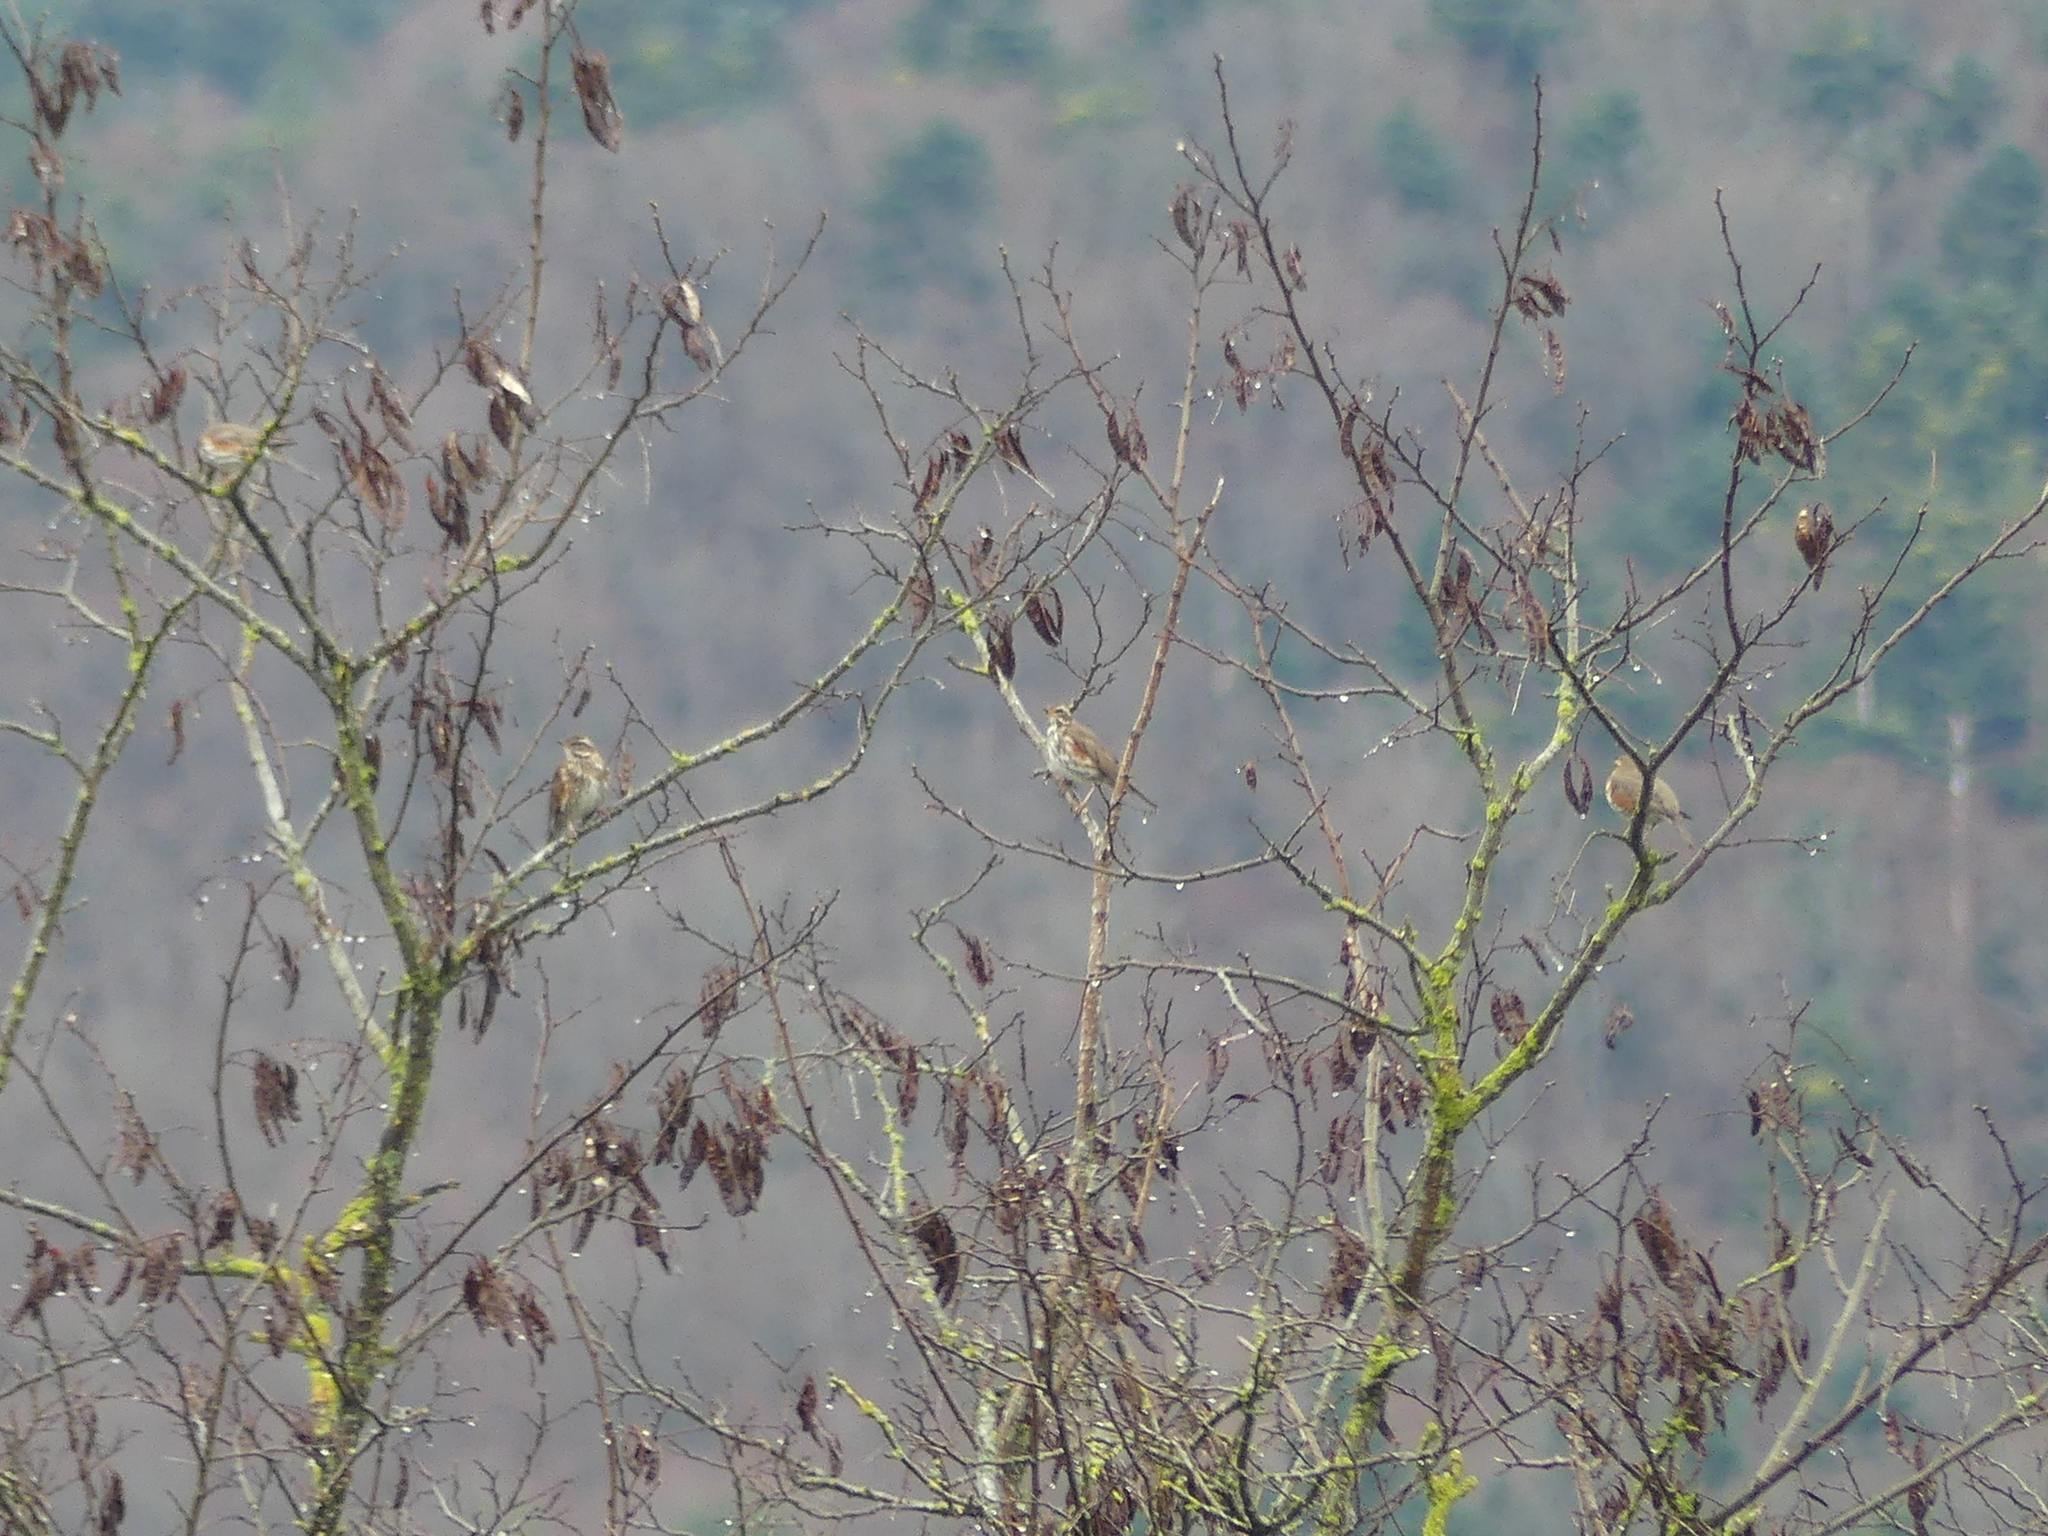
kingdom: Animalia
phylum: Chordata
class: Aves
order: Passeriformes
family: Turdidae
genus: Turdus
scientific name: Turdus iliacus
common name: Redwing
